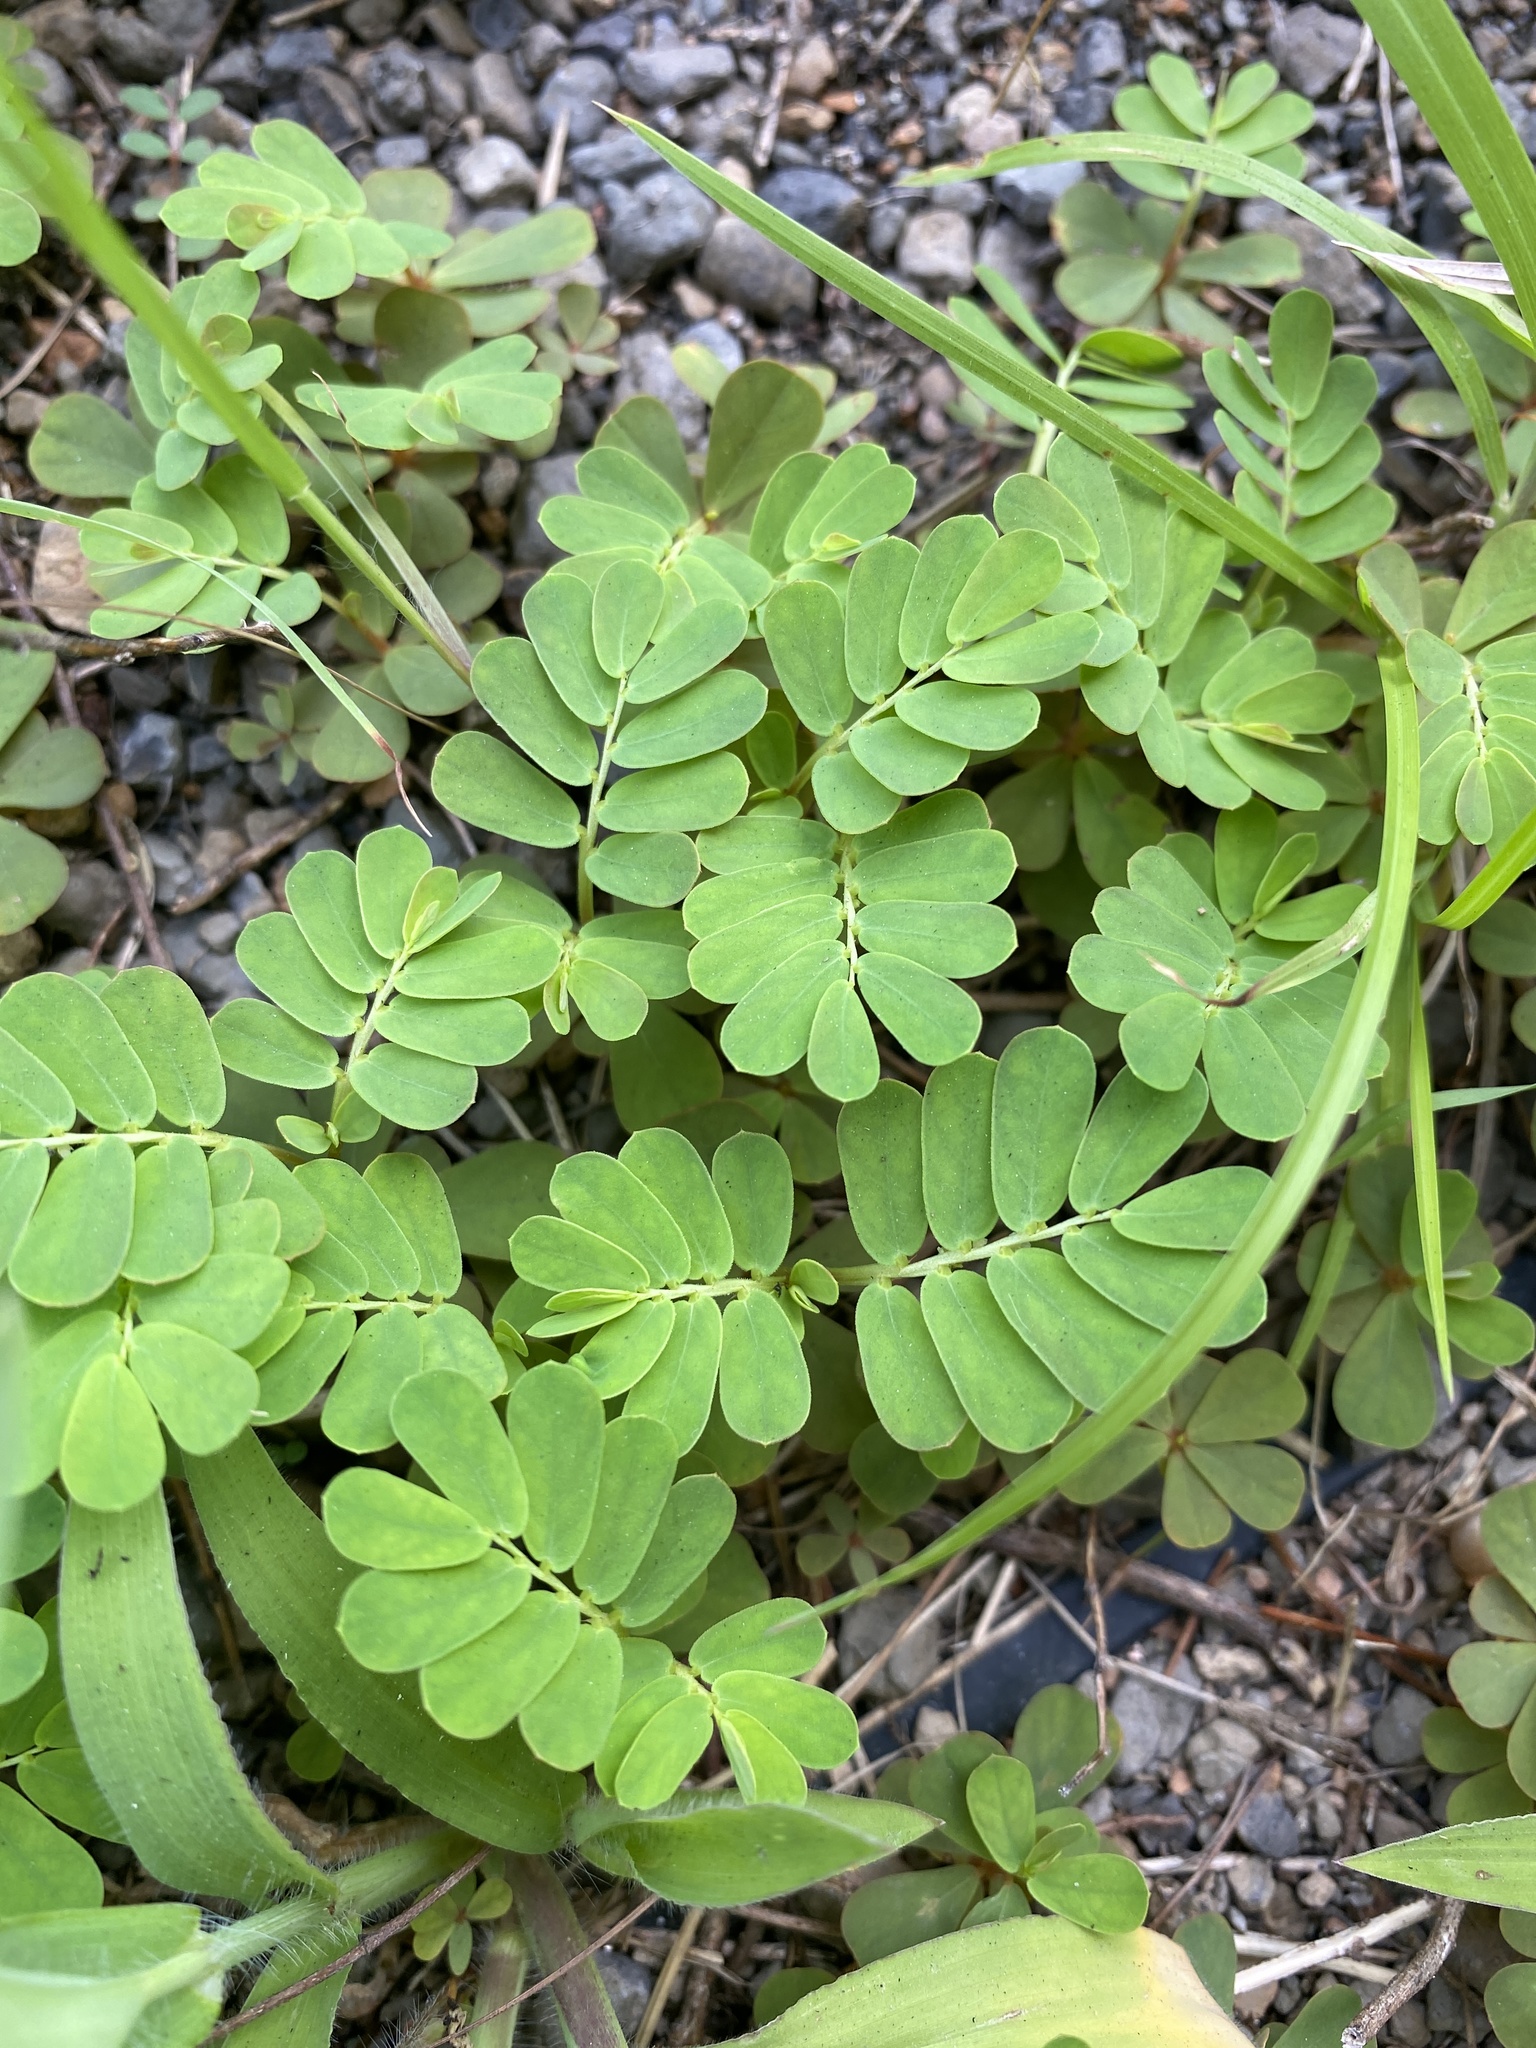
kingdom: Plantae
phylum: Tracheophyta
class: Magnoliopsida
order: Malpighiales
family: Phyllanthaceae
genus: Phyllanthus
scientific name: Phyllanthus urinaria
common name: Chamber bitter
